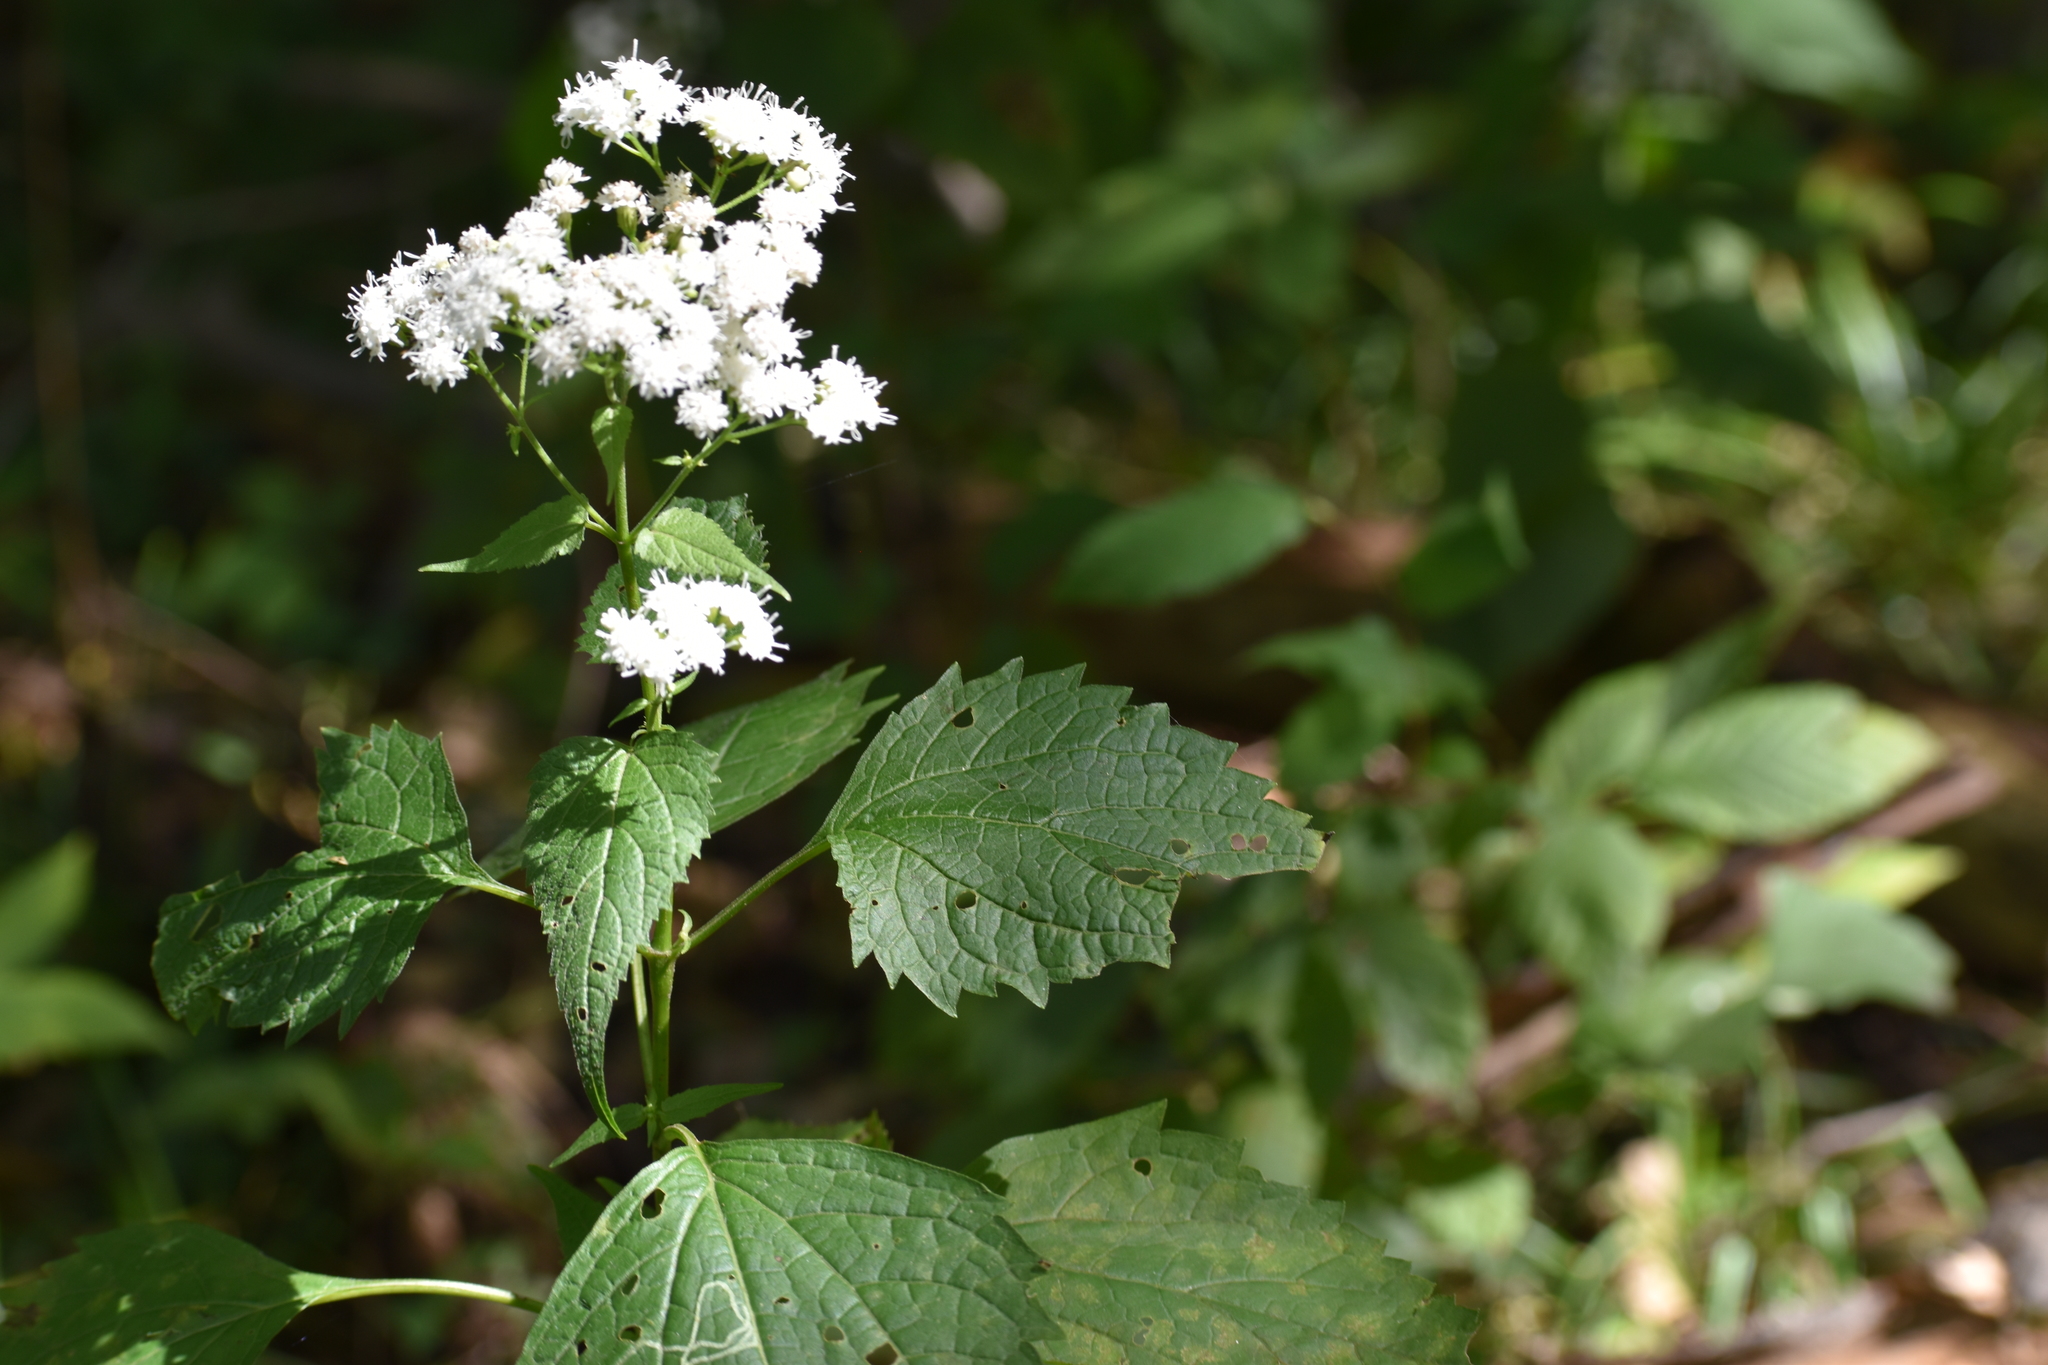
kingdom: Plantae
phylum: Tracheophyta
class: Magnoliopsida
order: Asterales
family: Asteraceae
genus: Ageratina
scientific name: Ageratina altissima
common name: White snakeroot
